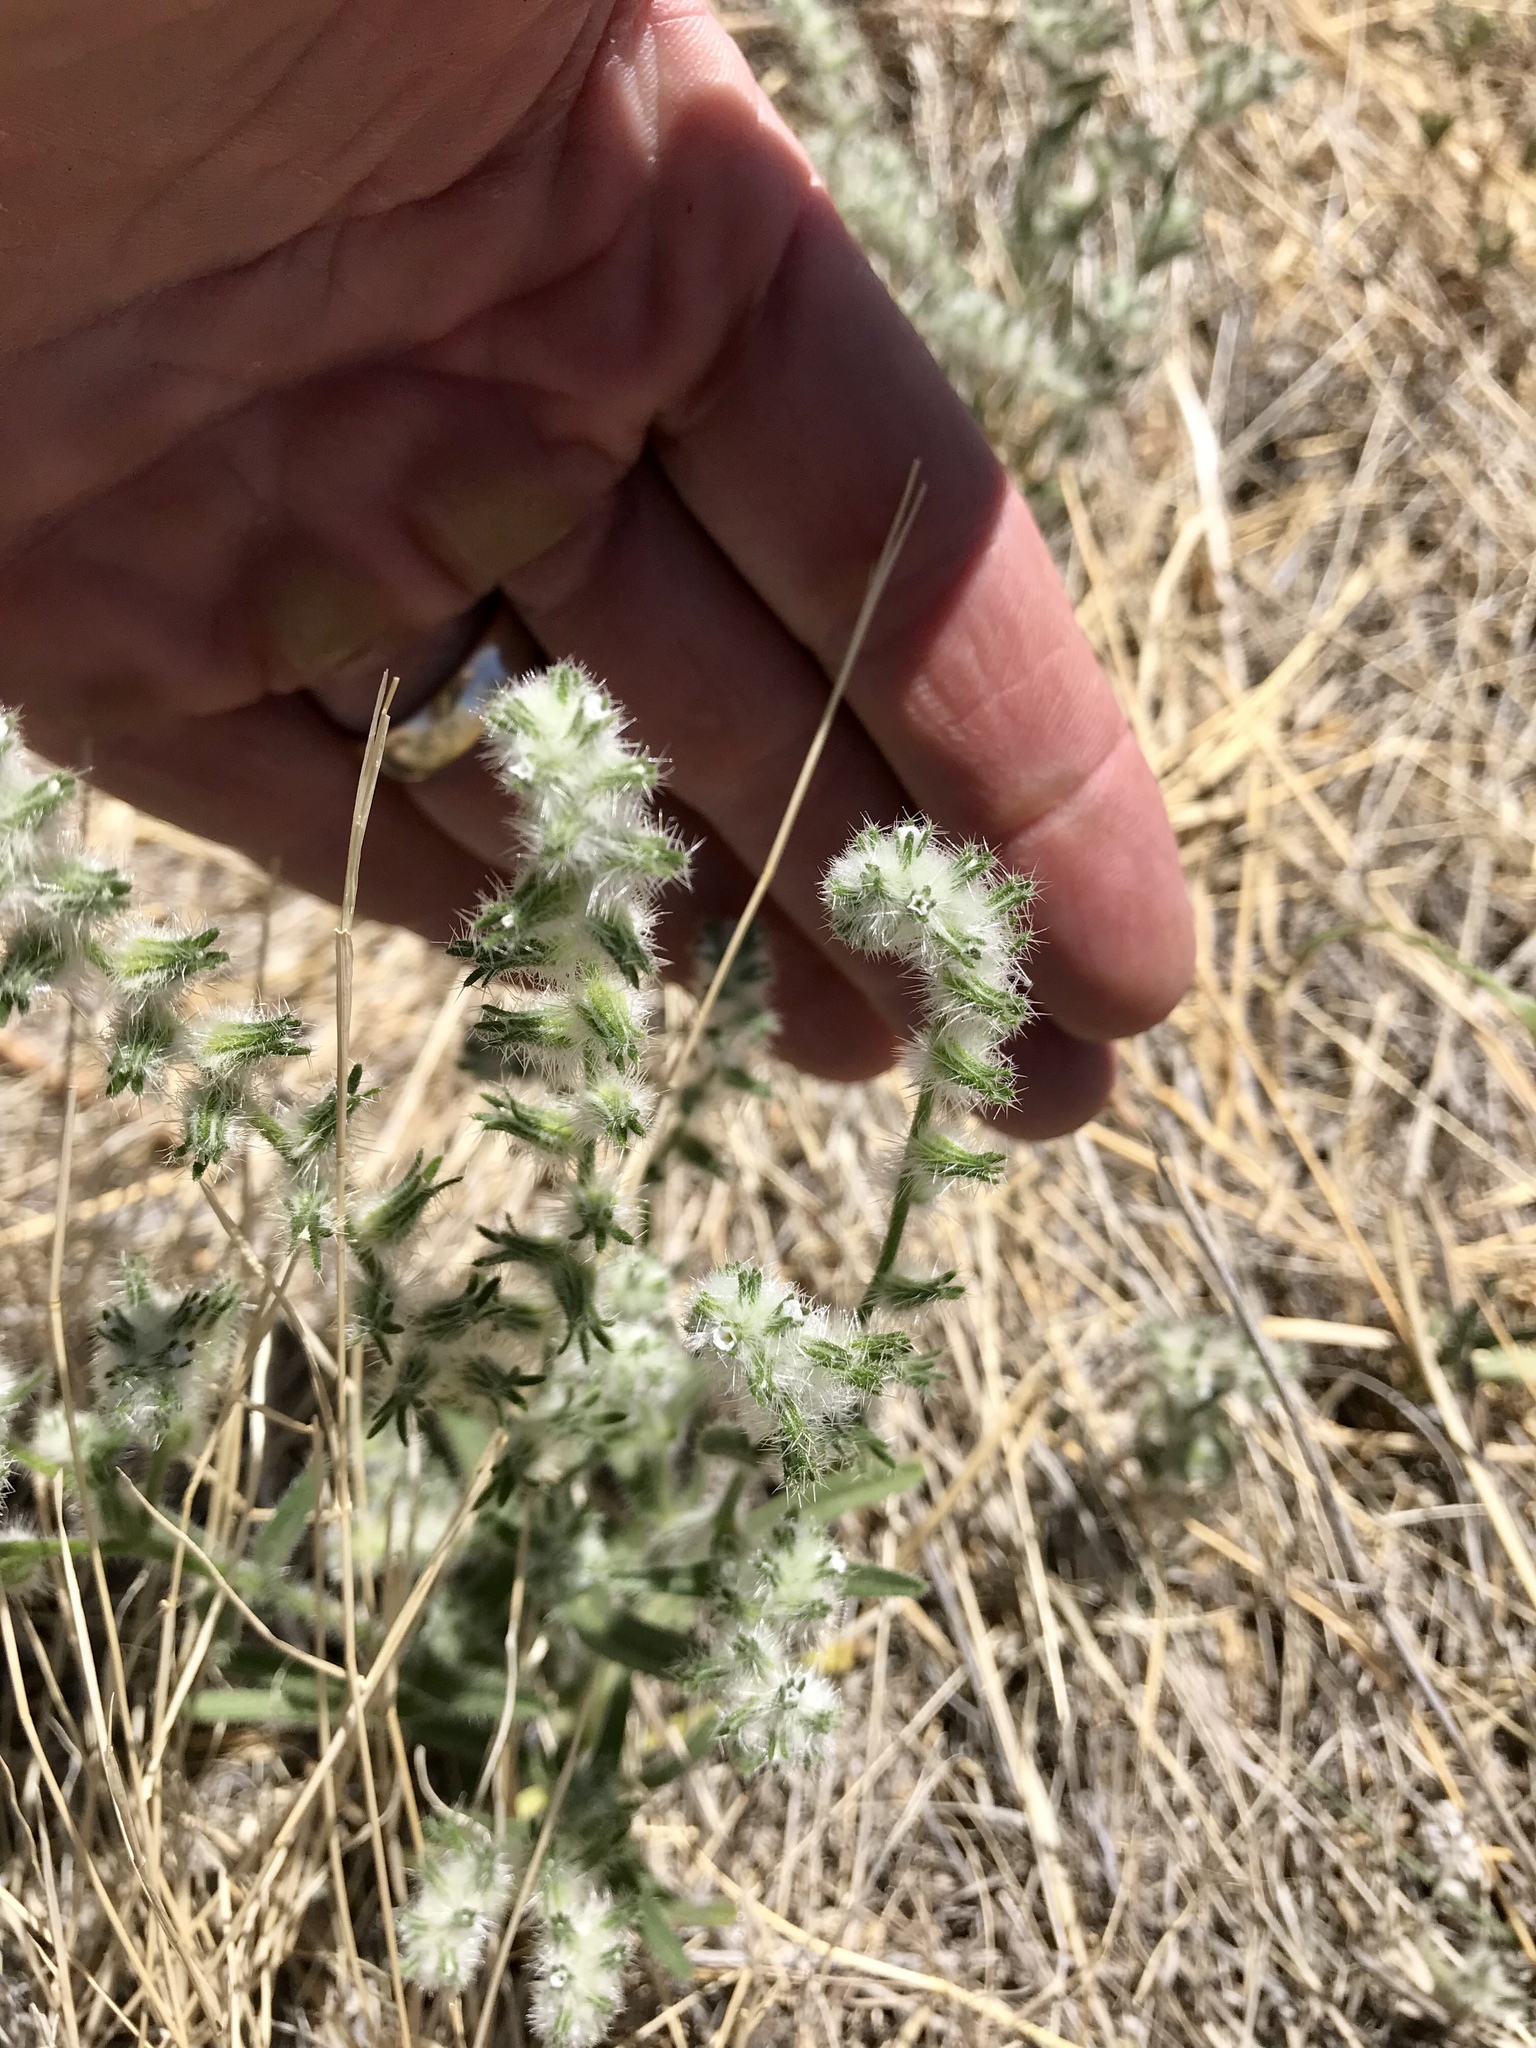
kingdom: Plantae
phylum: Tracheophyta
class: Magnoliopsida
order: Boraginales
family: Boraginaceae
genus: Johnstonella
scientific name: Johnstonella angustifolia
